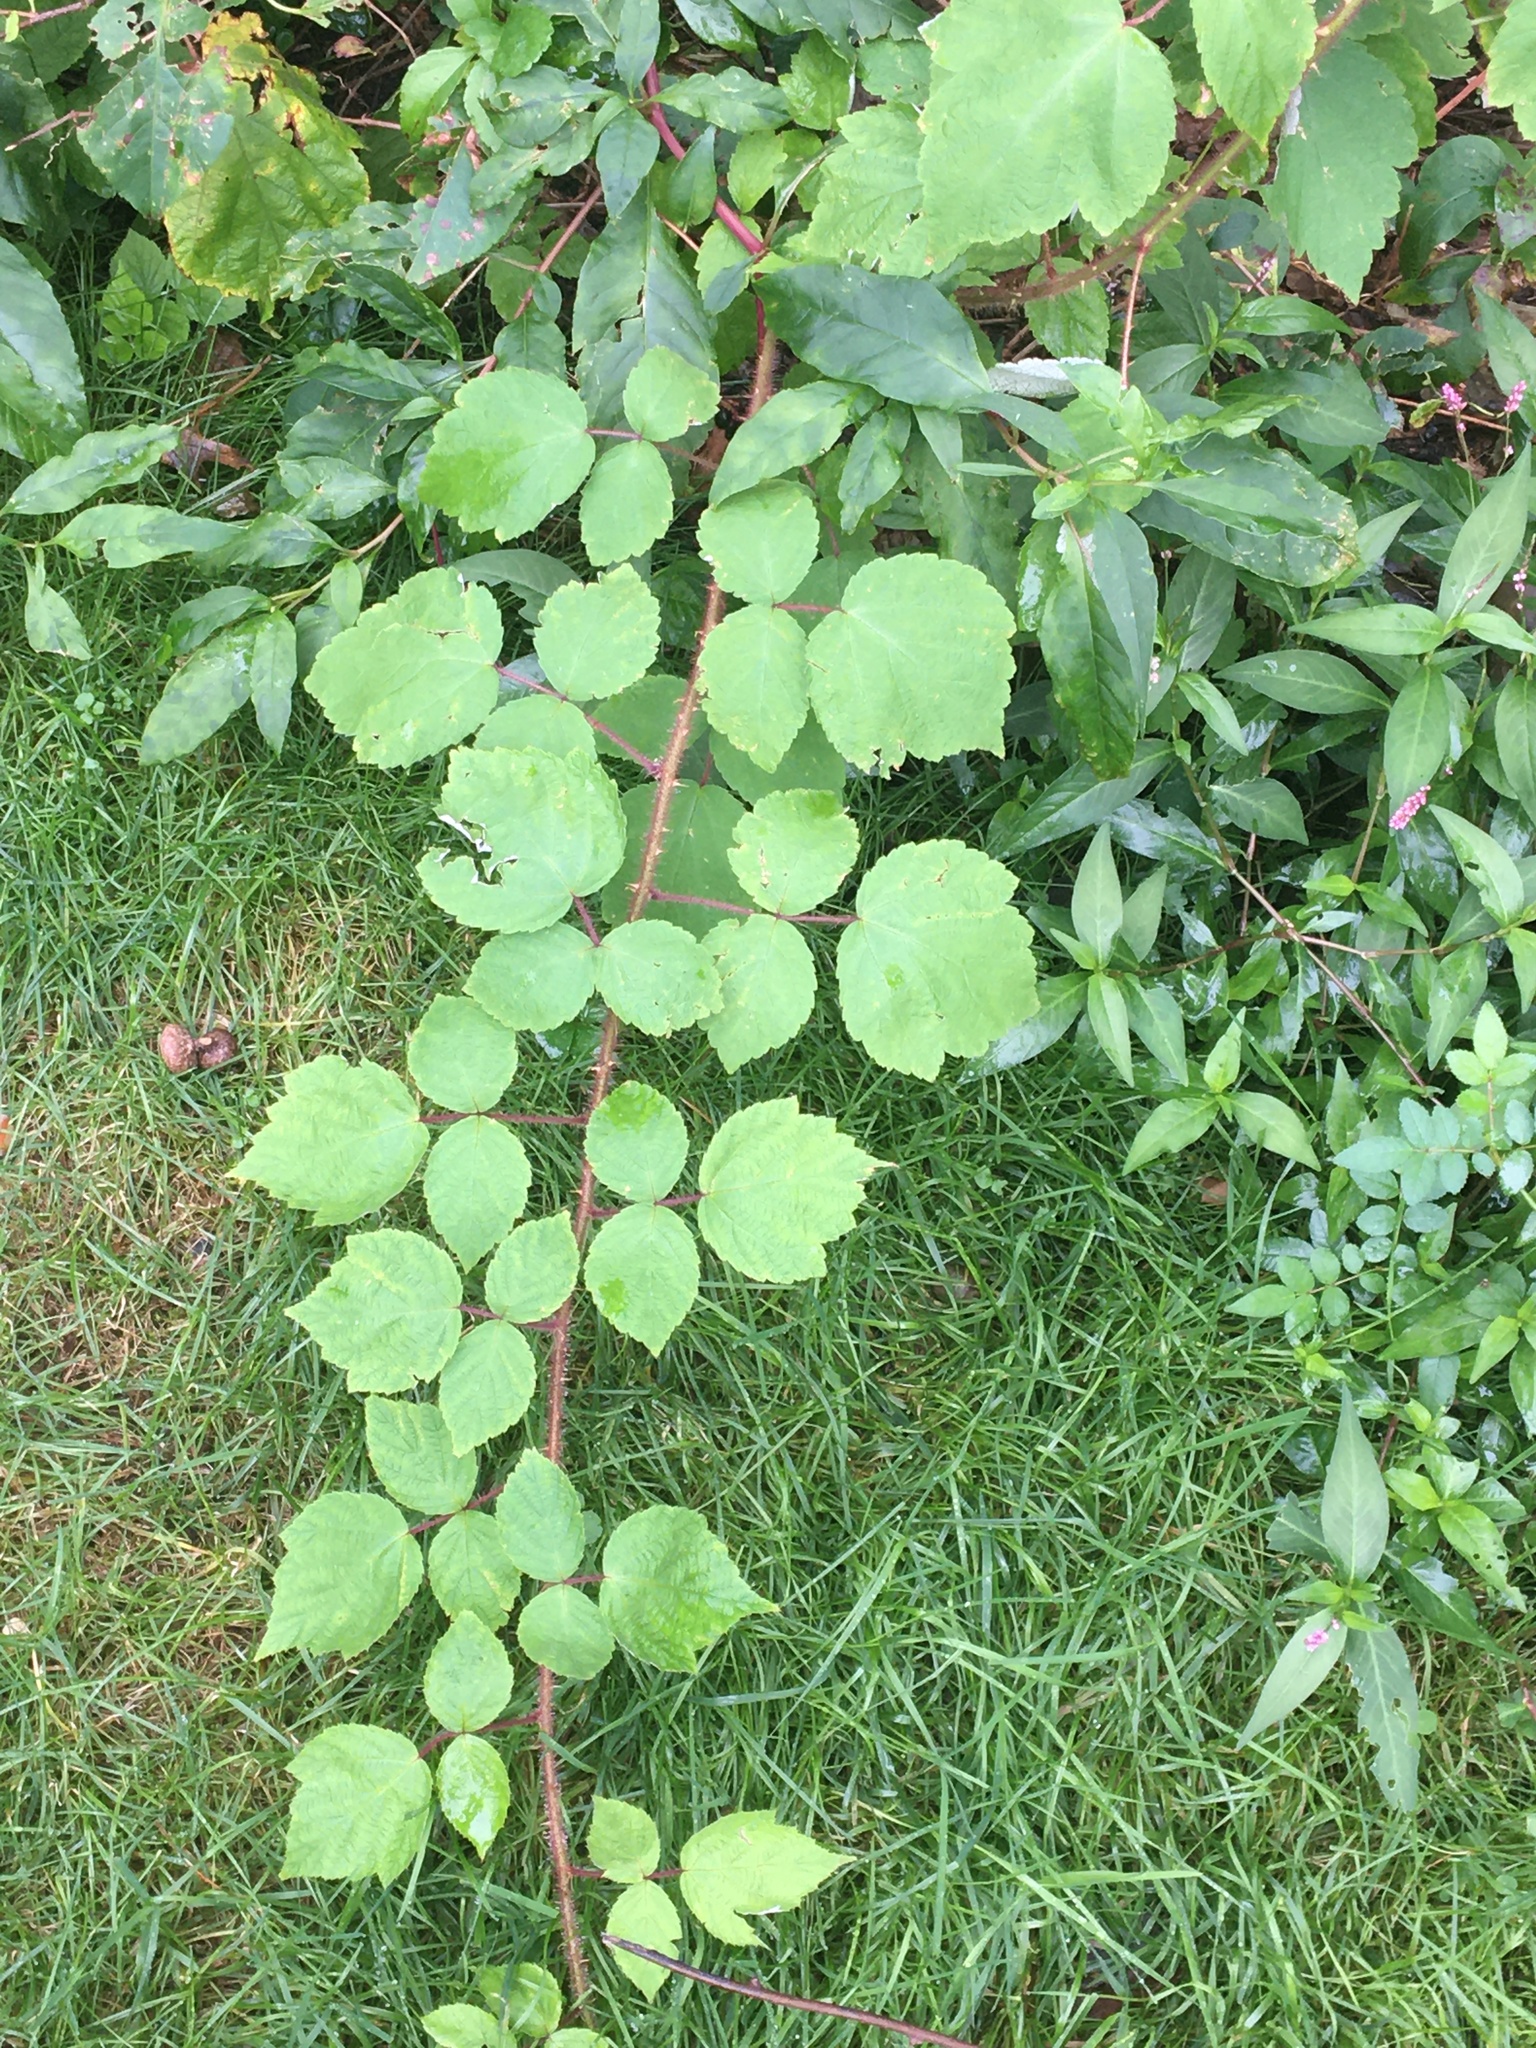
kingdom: Plantae
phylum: Tracheophyta
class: Magnoliopsida
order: Rosales
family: Rosaceae
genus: Rubus
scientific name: Rubus phoenicolasius
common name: Japanese wineberry
